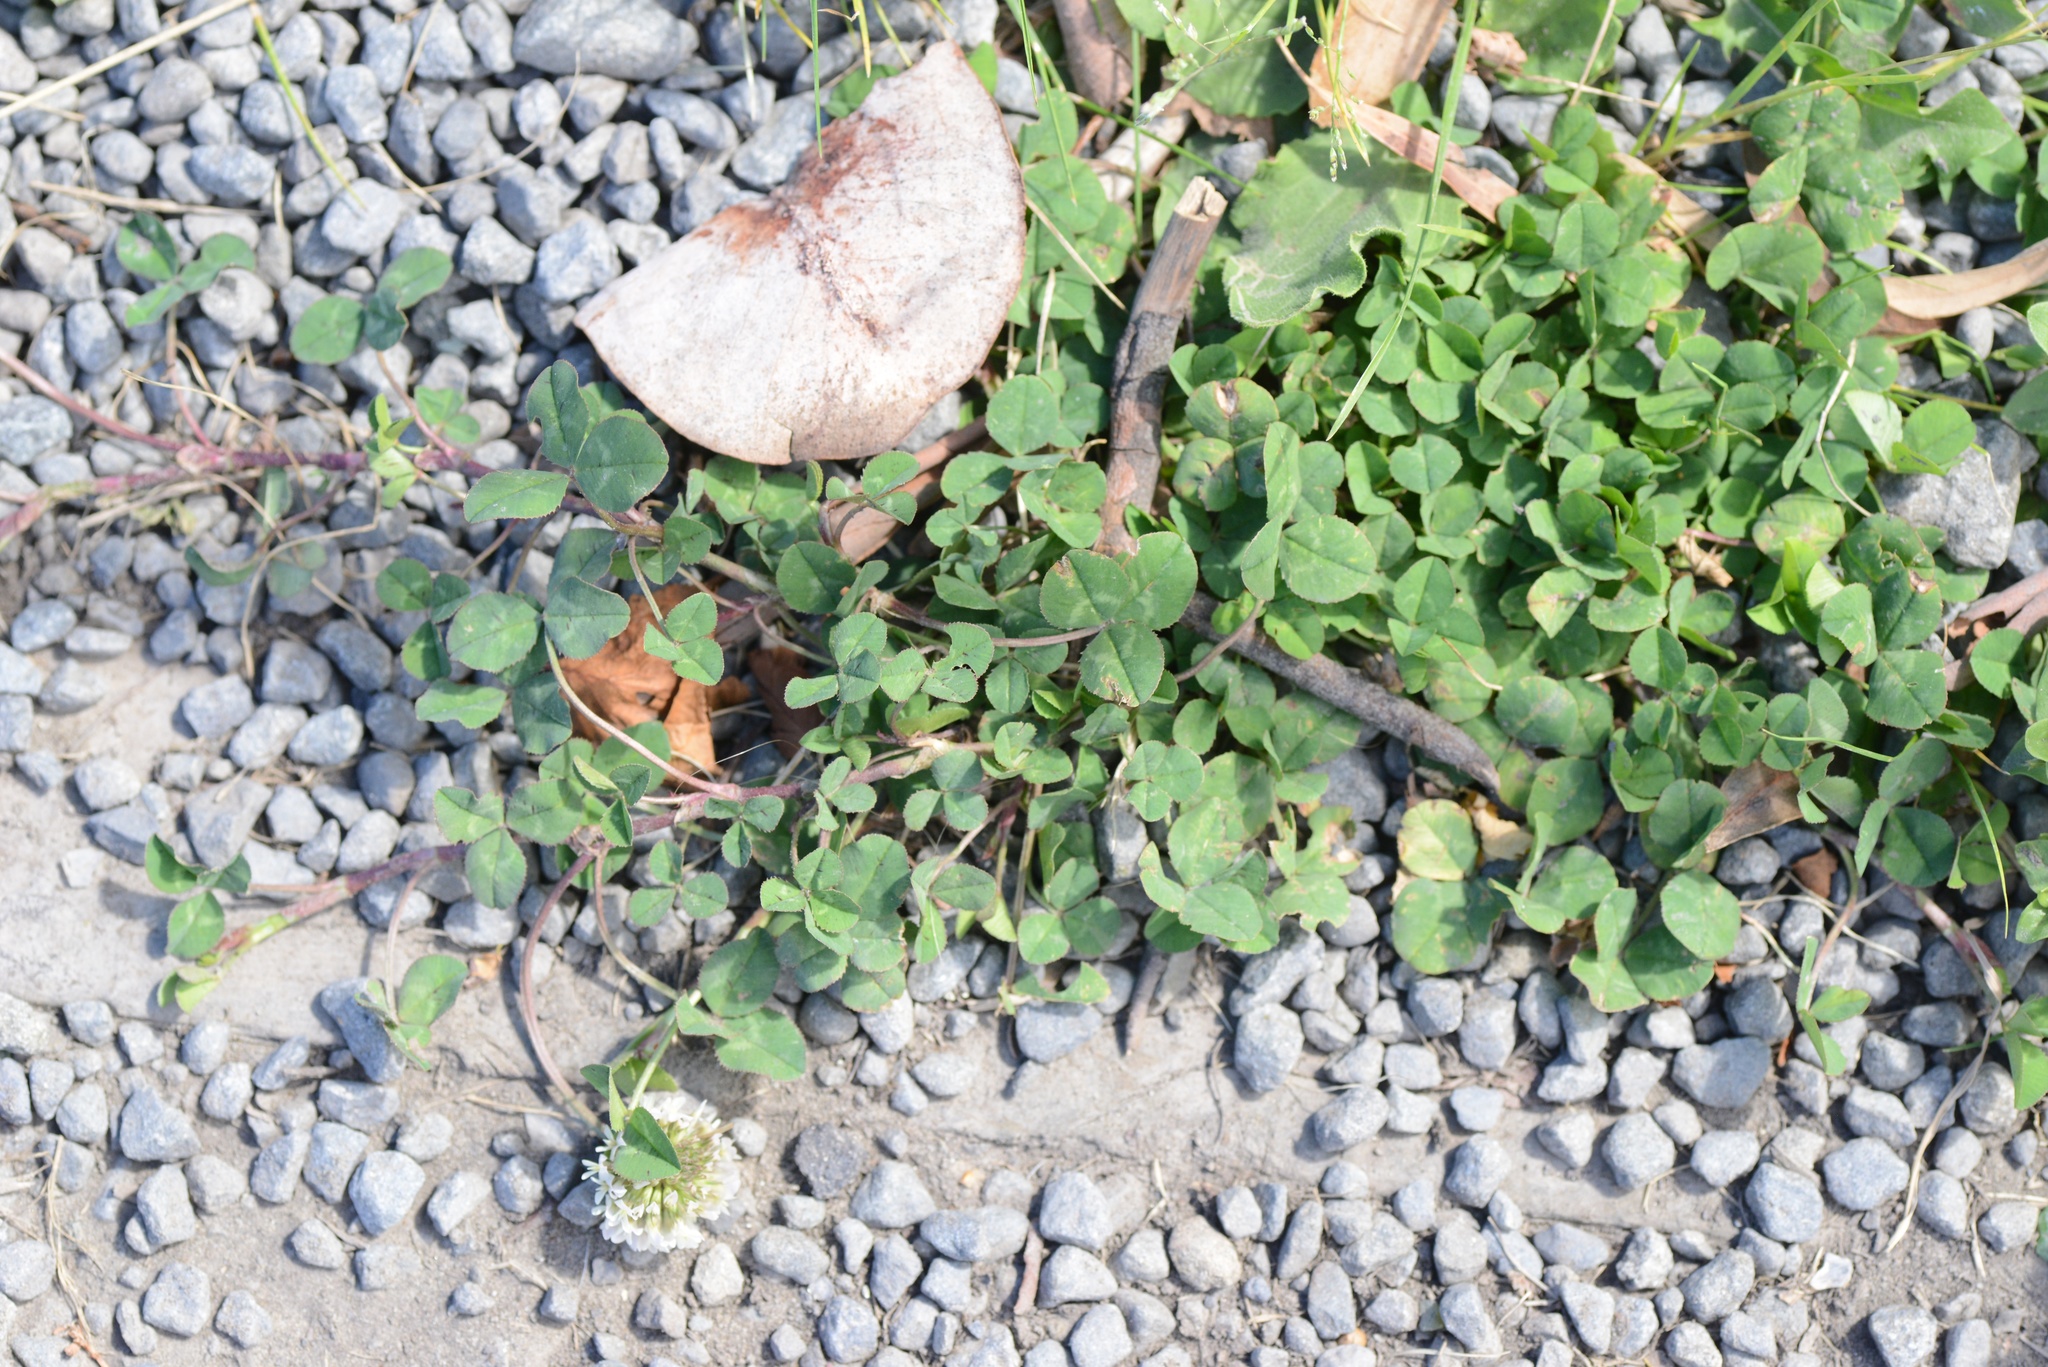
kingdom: Plantae
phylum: Tracheophyta
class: Magnoliopsida
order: Fabales
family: Fabaceae
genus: Trifolium
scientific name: Trifolium repens
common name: White clover
